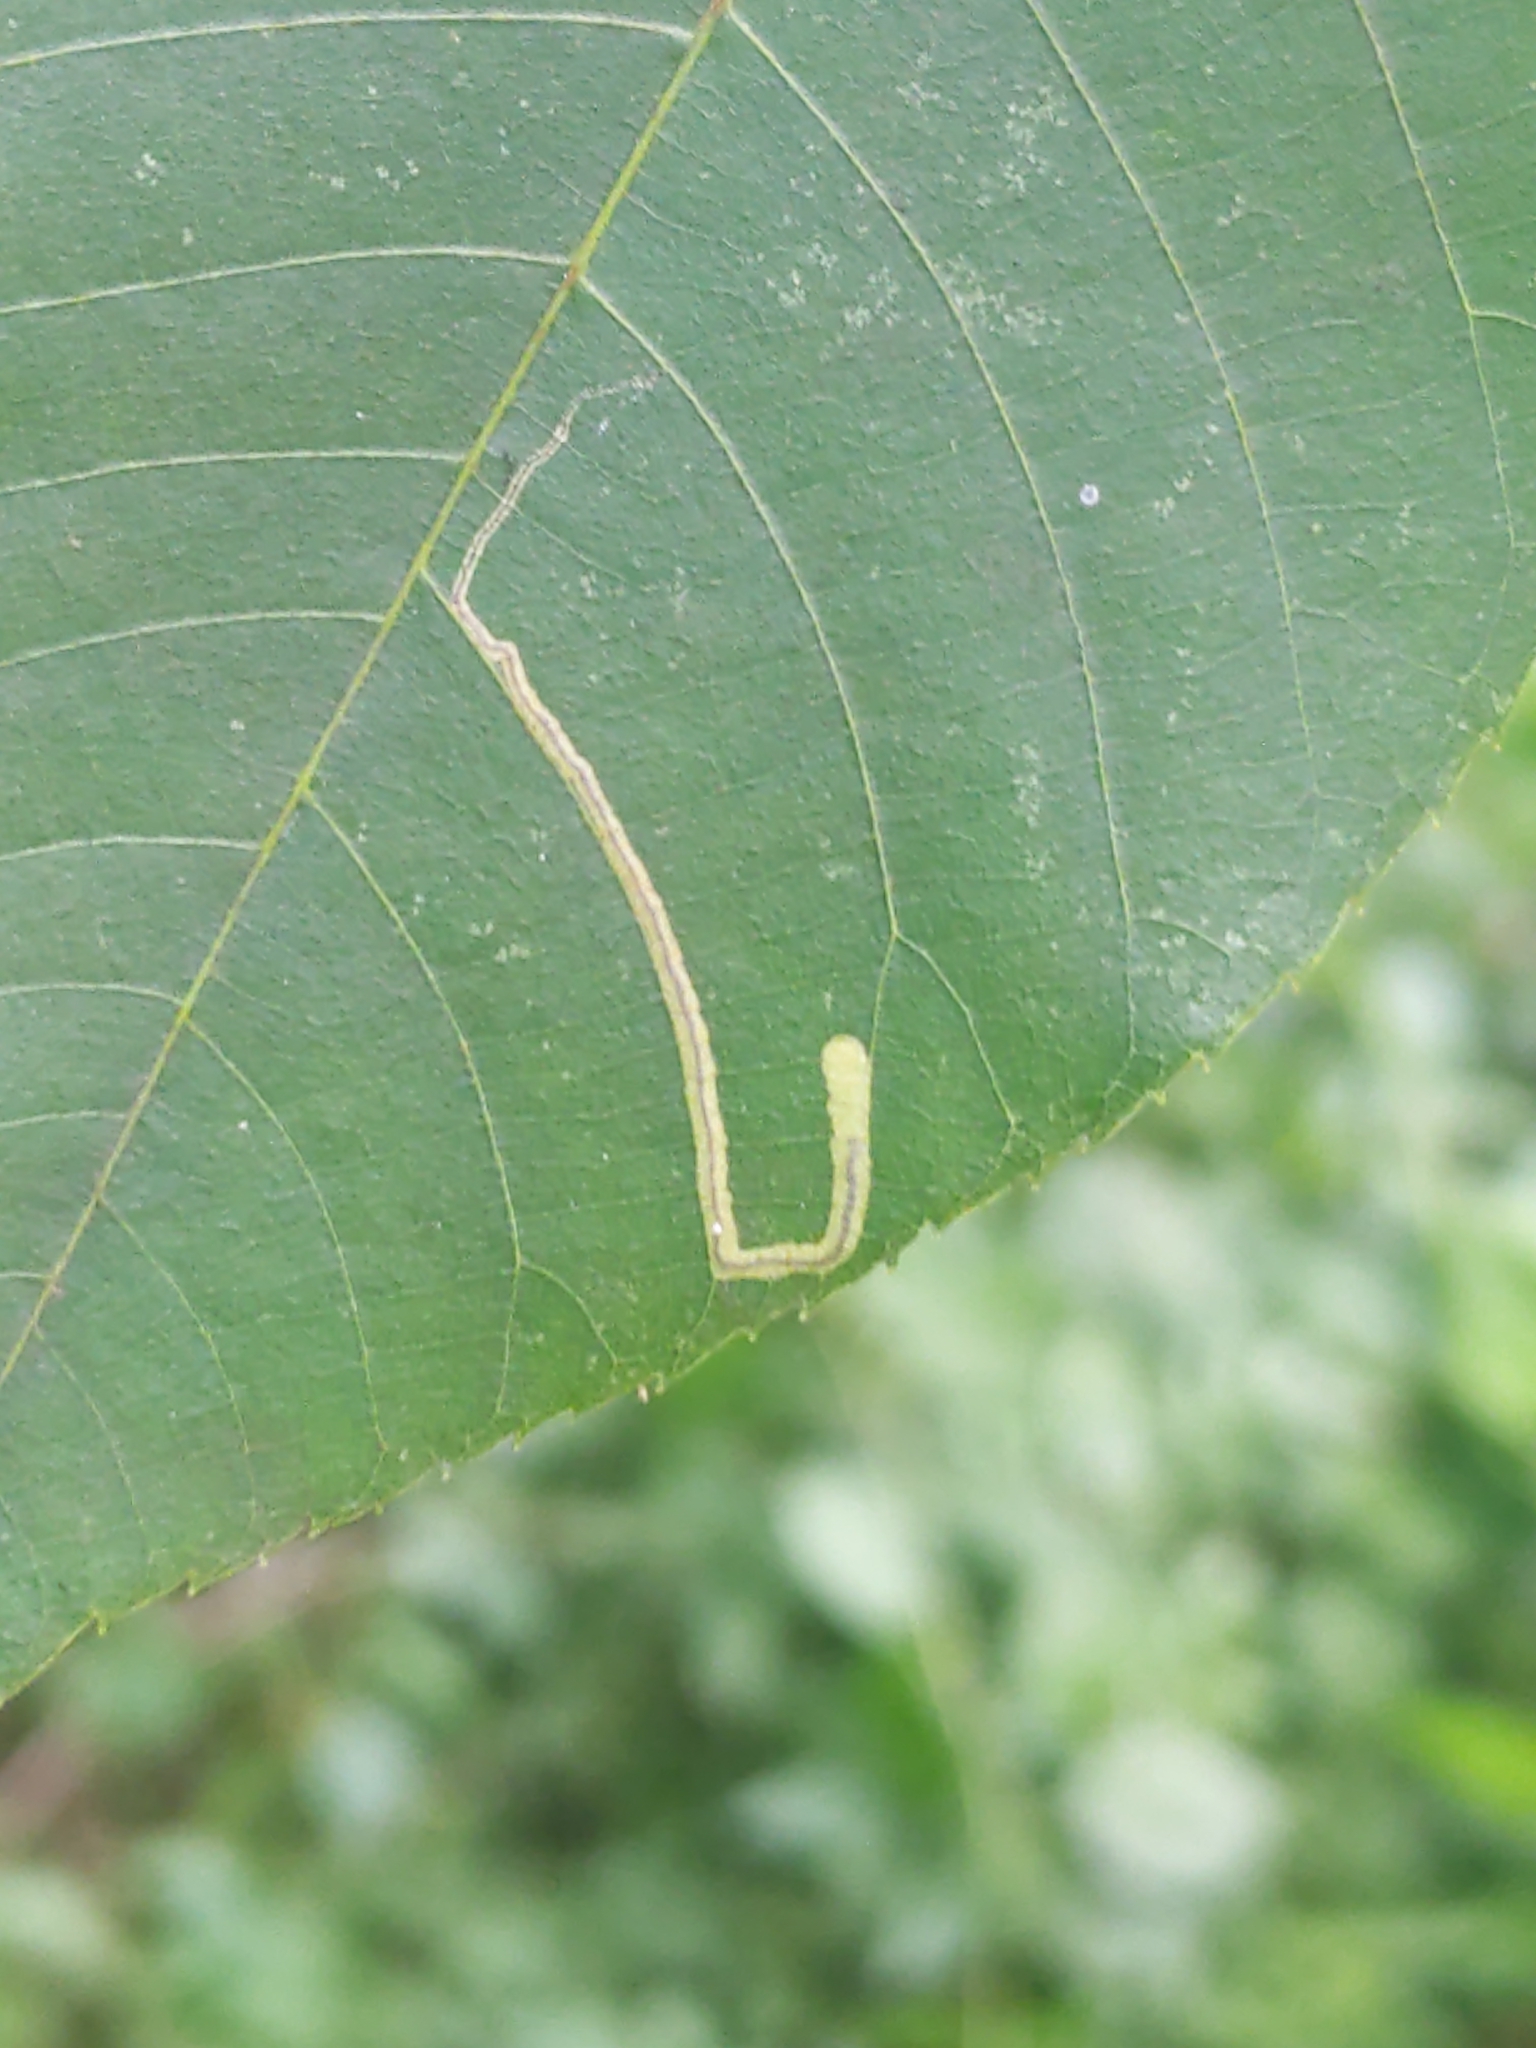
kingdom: Animalia
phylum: Arthropoda
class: Insecta
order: Lepidoptera
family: Nepticulidae
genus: Stigmella
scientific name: Stigmella caryaefoliella
